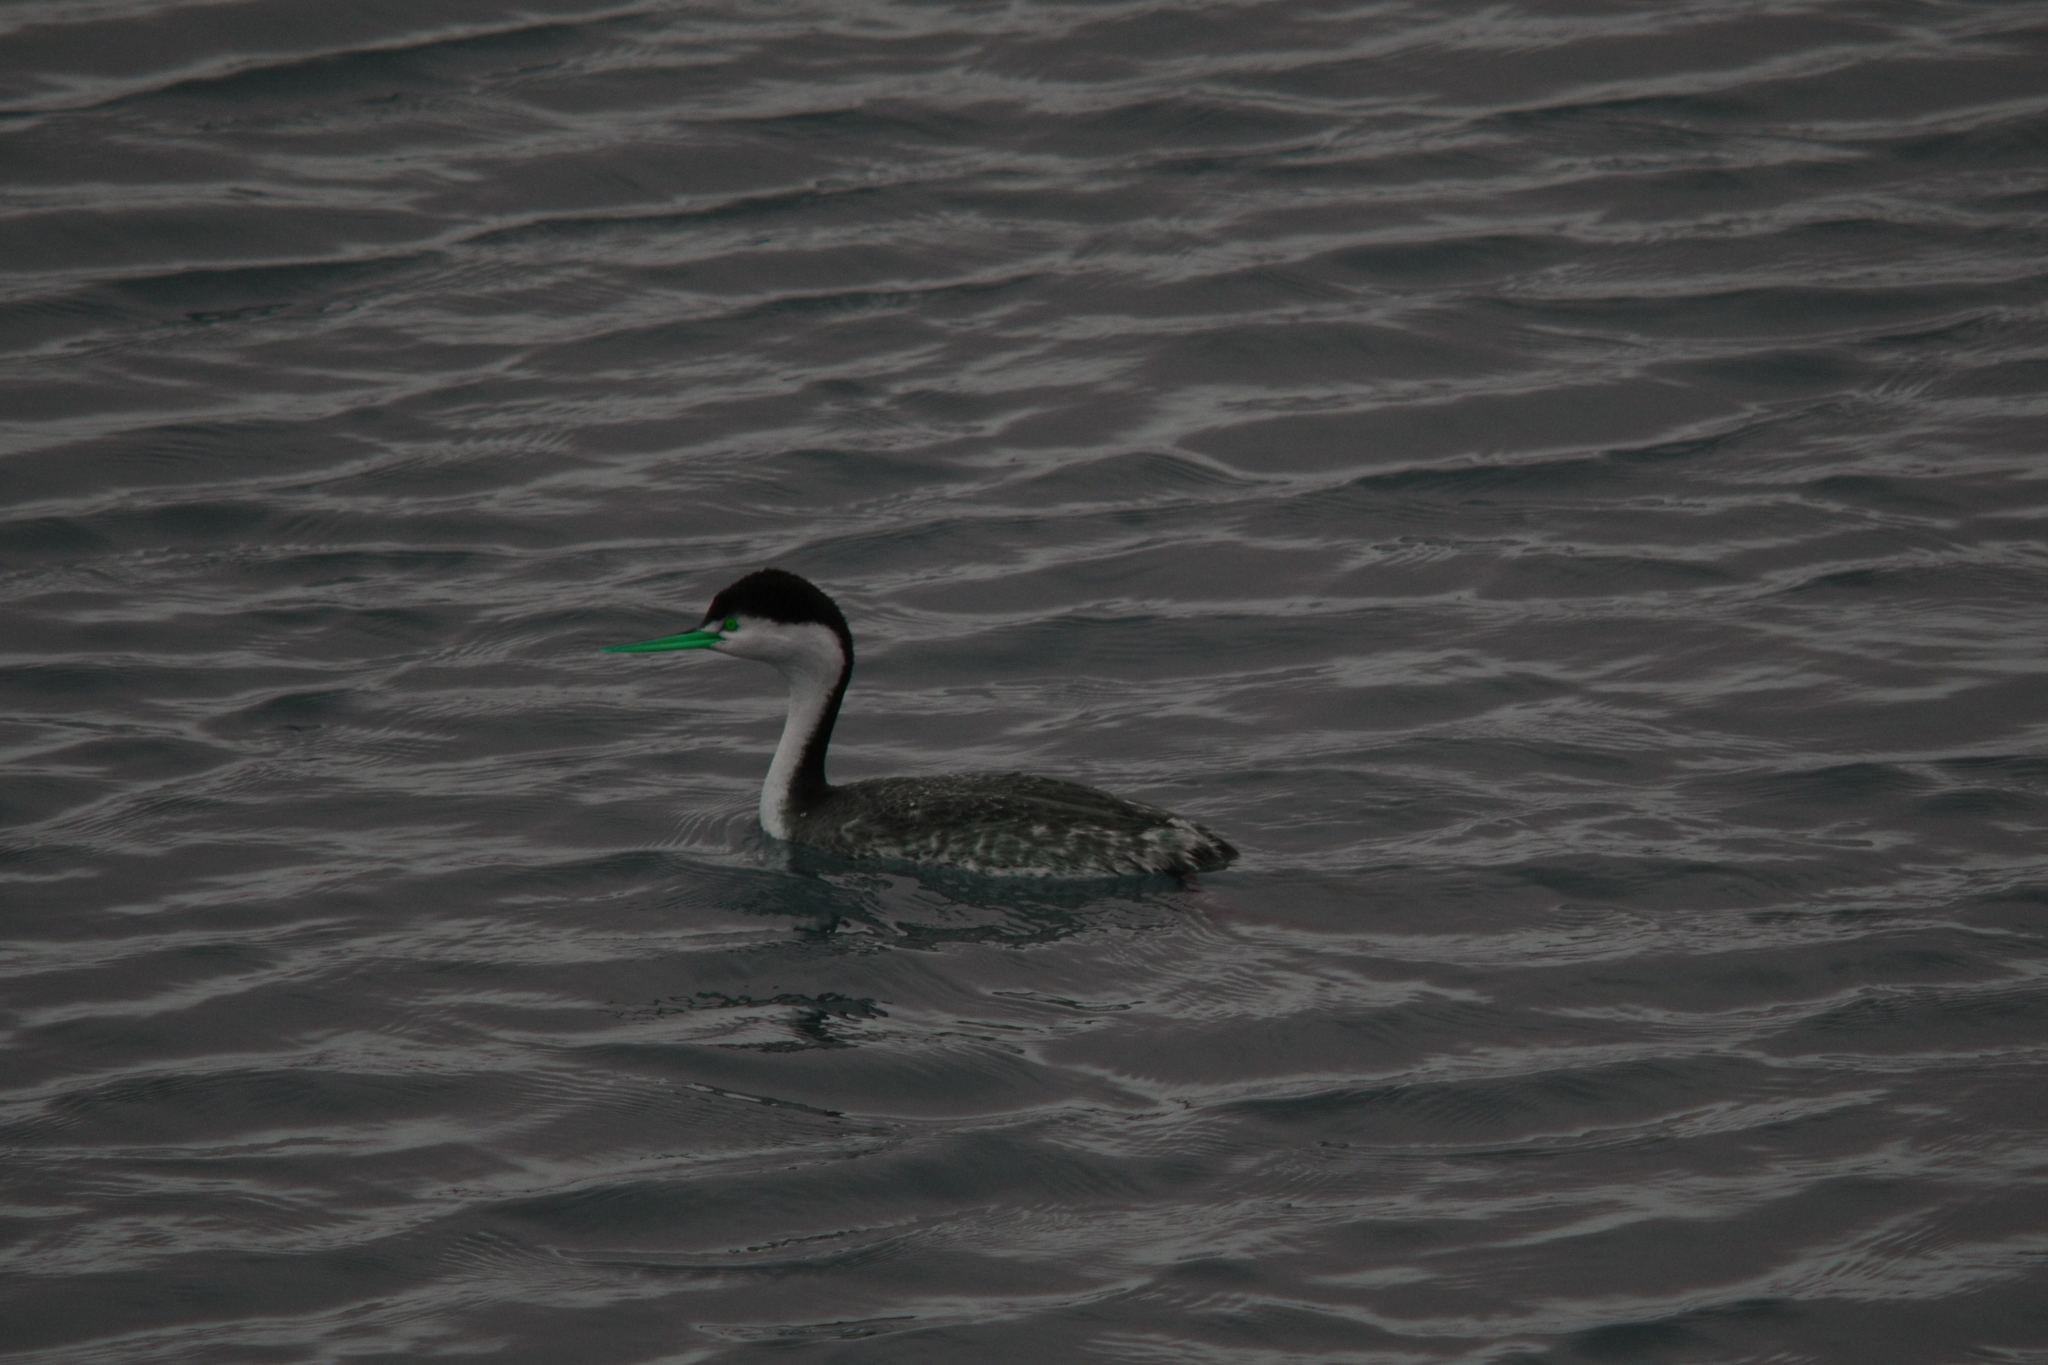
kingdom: Animalia
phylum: Chordata
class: Aves
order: Podicipediformes
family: Podicipedidae
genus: Aechmophorus
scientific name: Aechmophorus clarkii
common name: Clark's grebe
